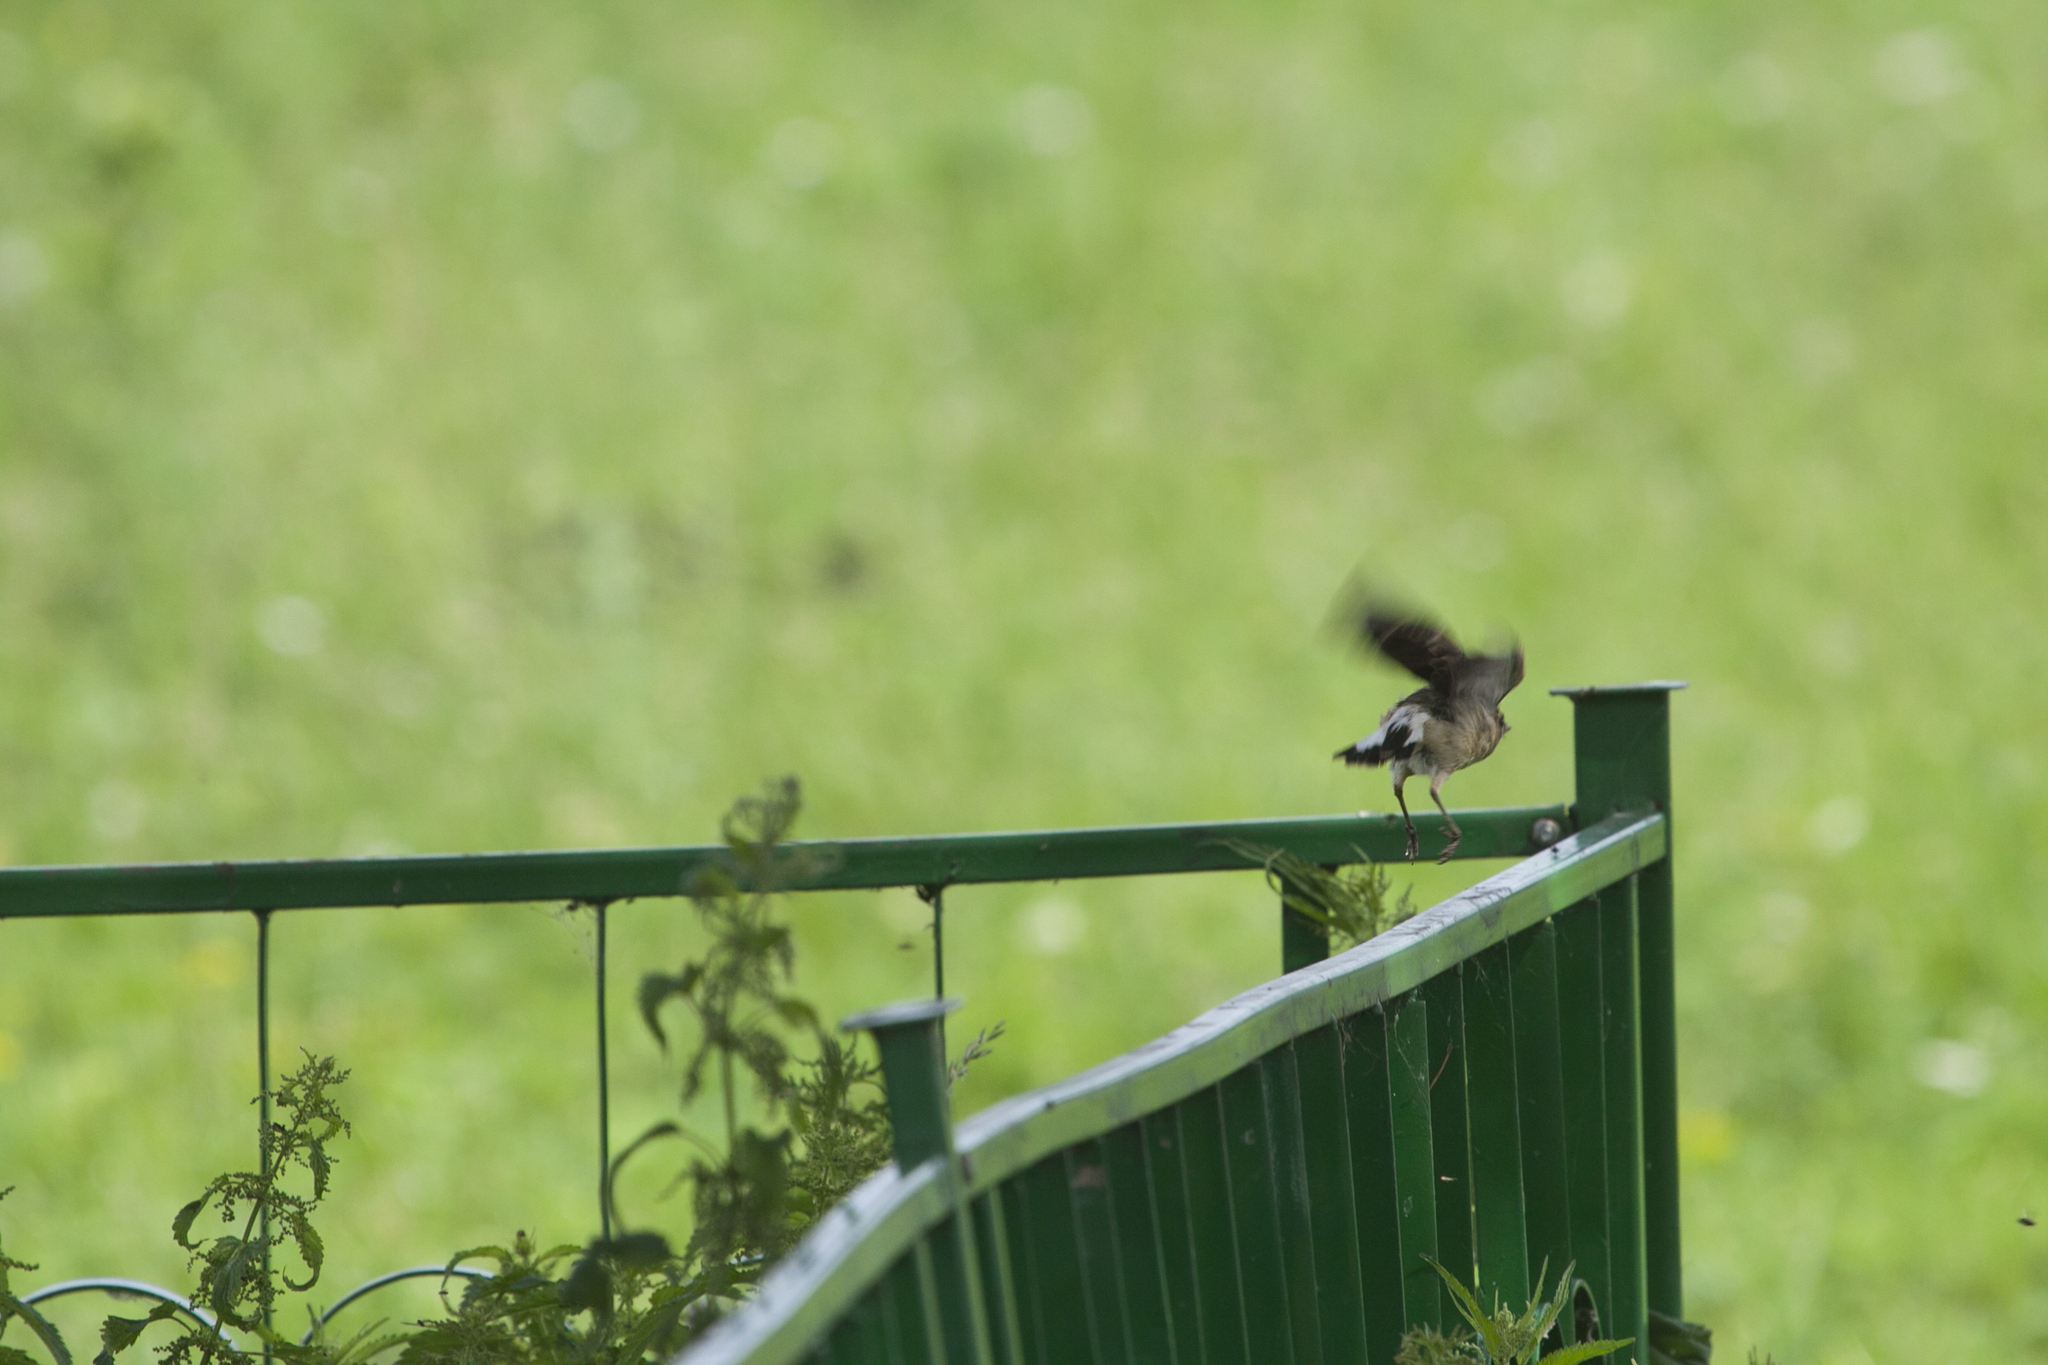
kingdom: Animalia
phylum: Chordata
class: Aves
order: Passeriformes
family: Muscicapidae
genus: Oenanthe
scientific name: Oenanthe oenanthe
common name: Northern wheatear
